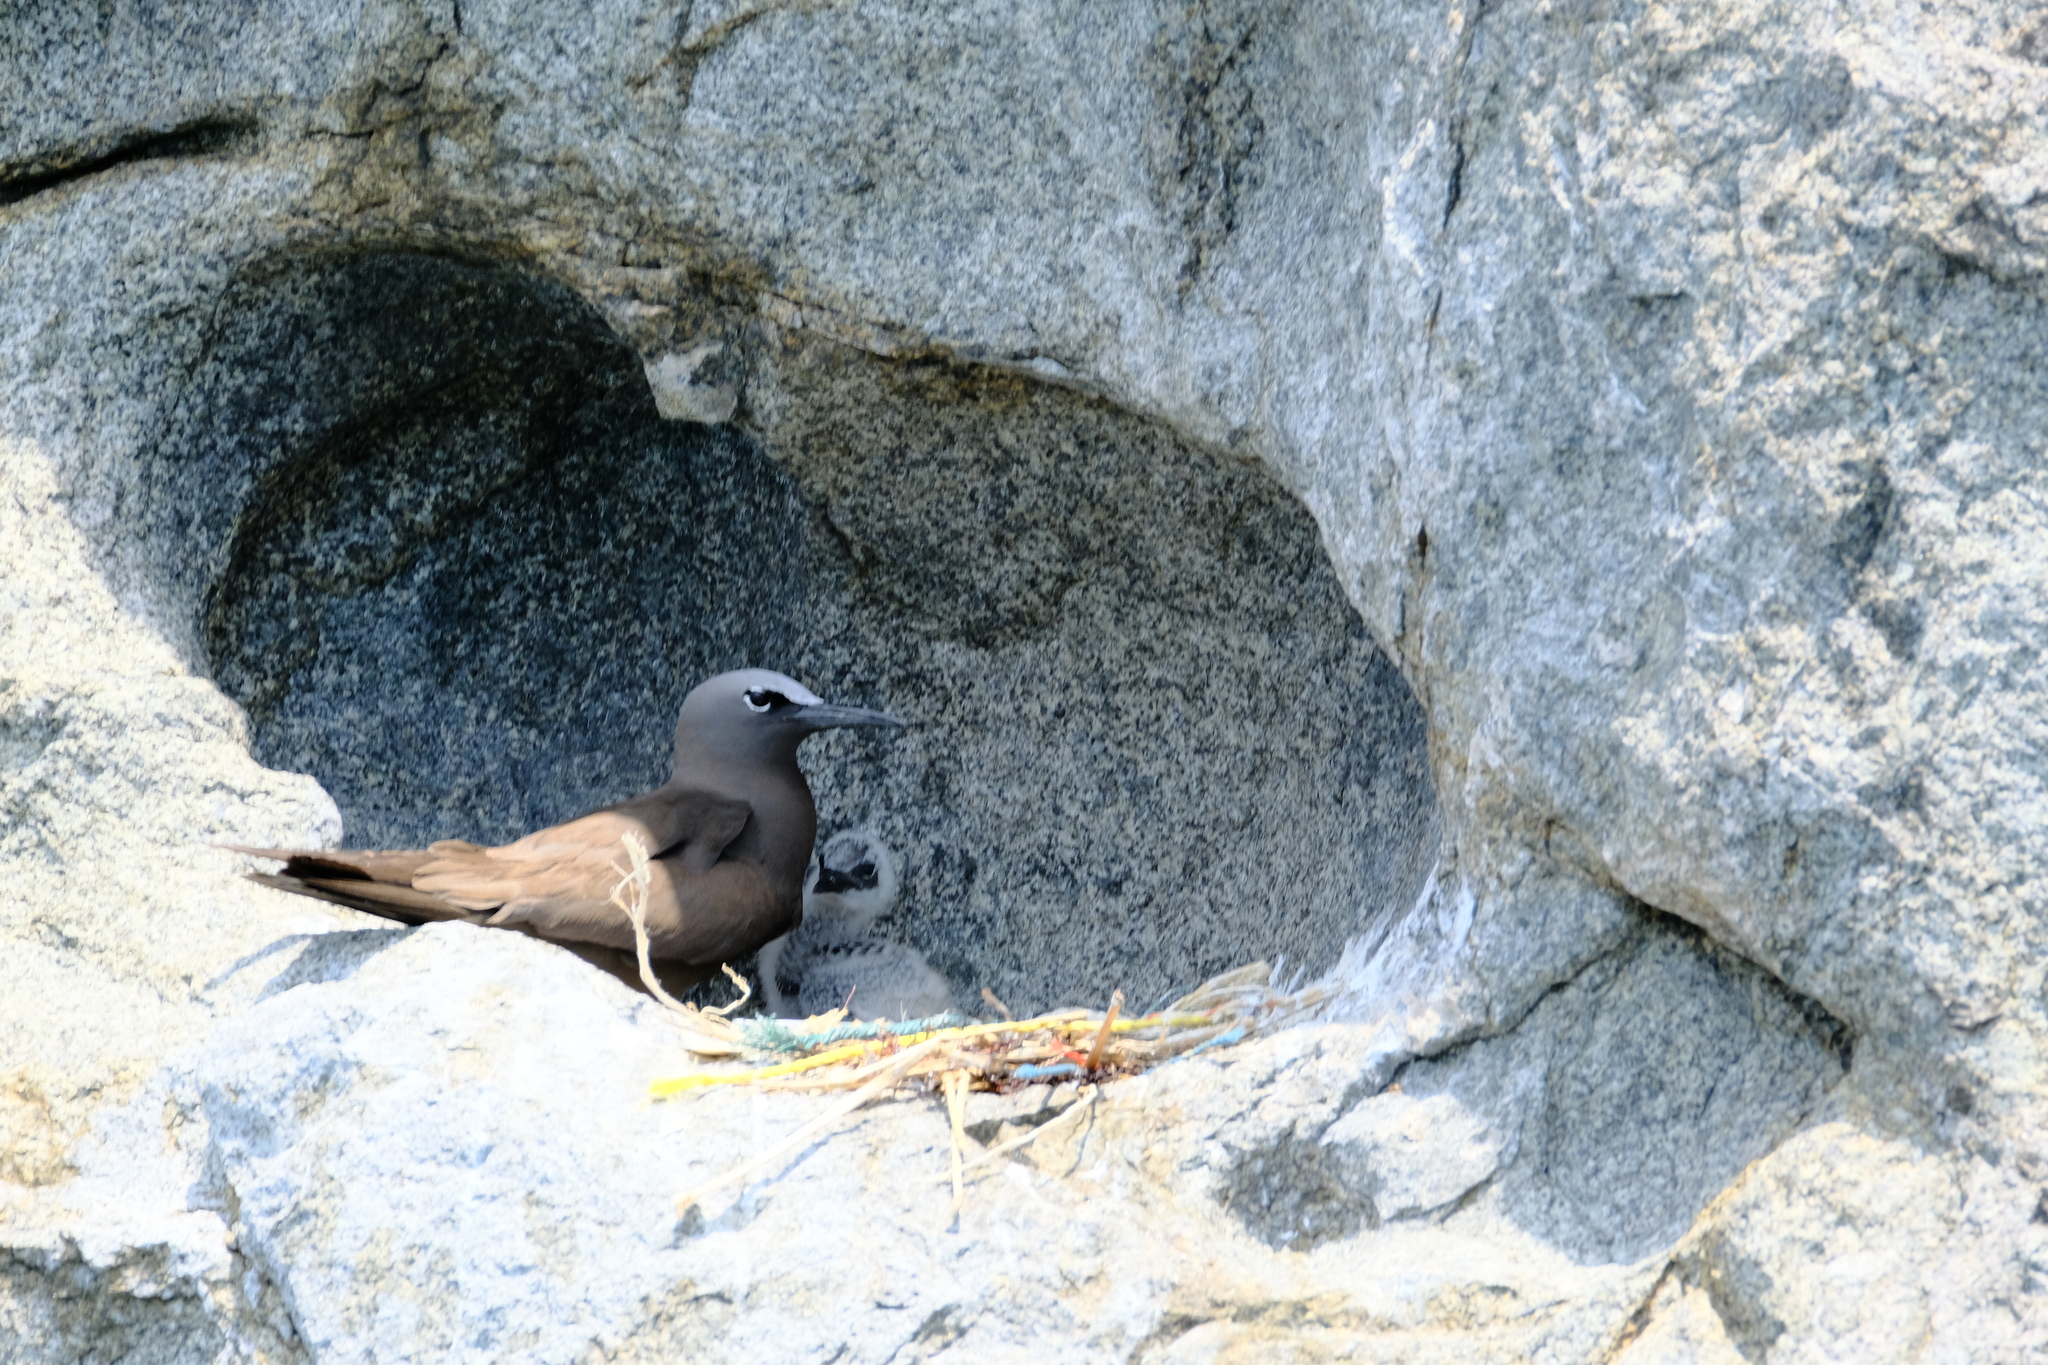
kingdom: Animalia
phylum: Chordata
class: Aves
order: Charadriiformes
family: Laridae
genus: Anous
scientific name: Anous stolidus
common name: Brown noddy
